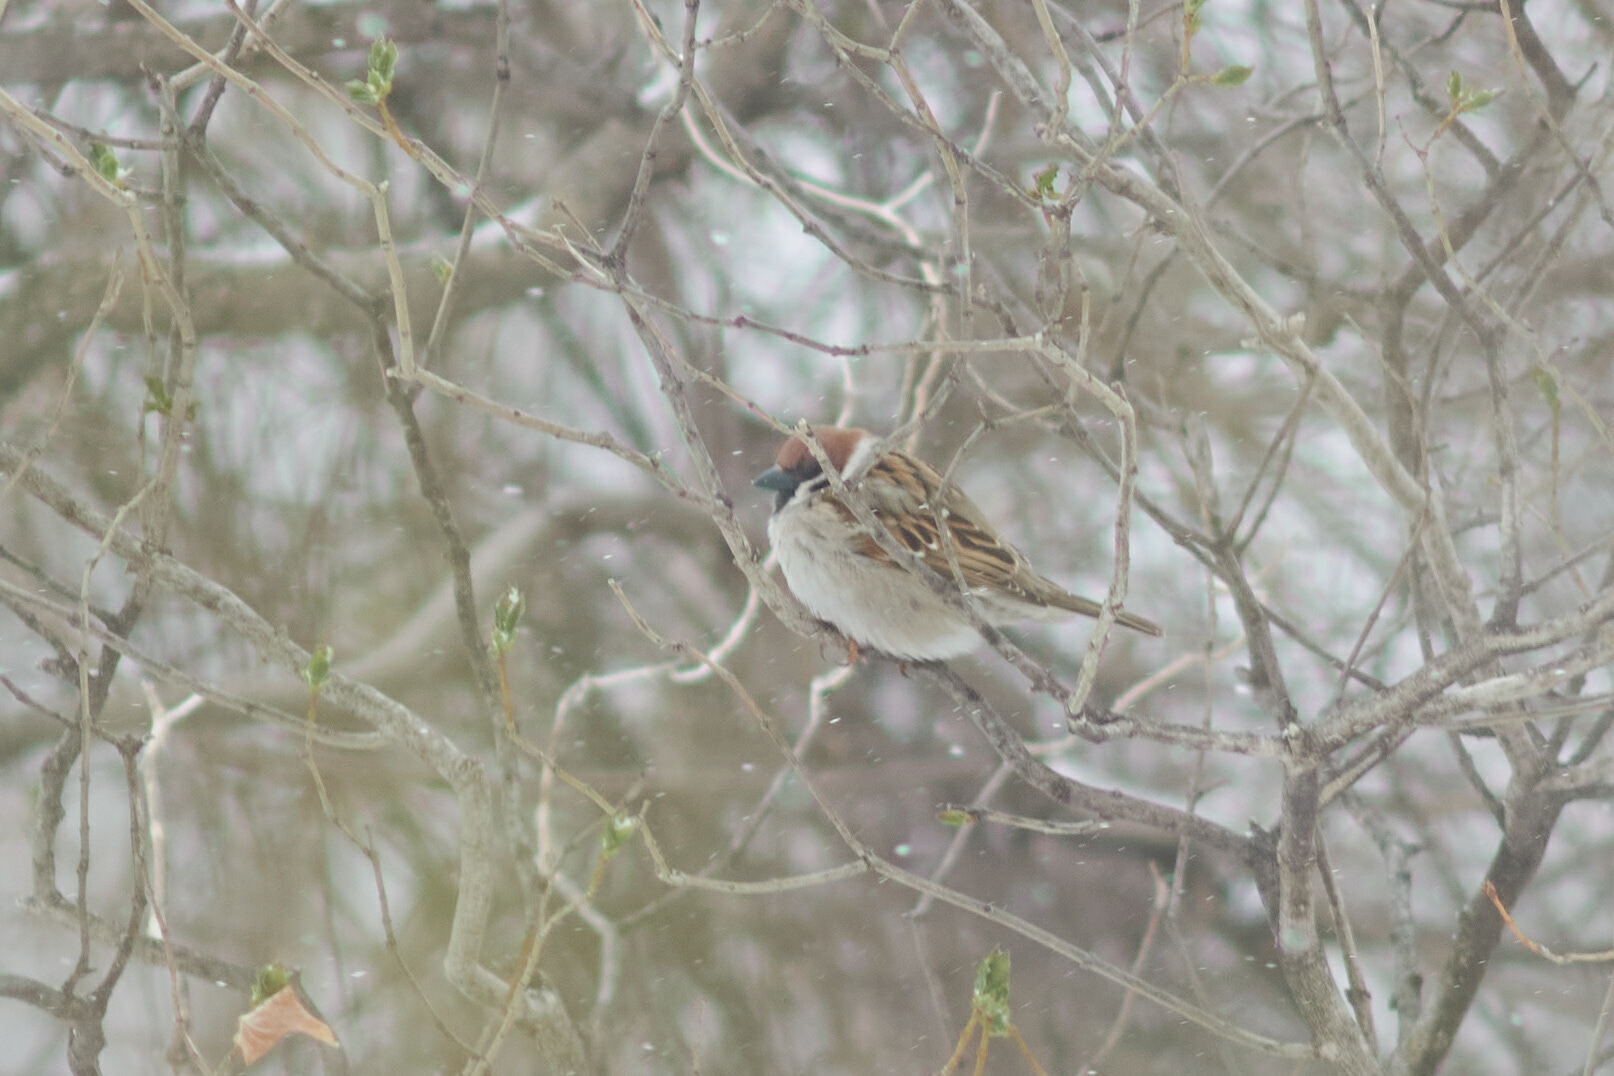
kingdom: Animalia
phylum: Chordata
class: Aves
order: Passeriformes
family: Passeridae
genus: Passer
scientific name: Passer montanus
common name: Eurasian tree sparrow
